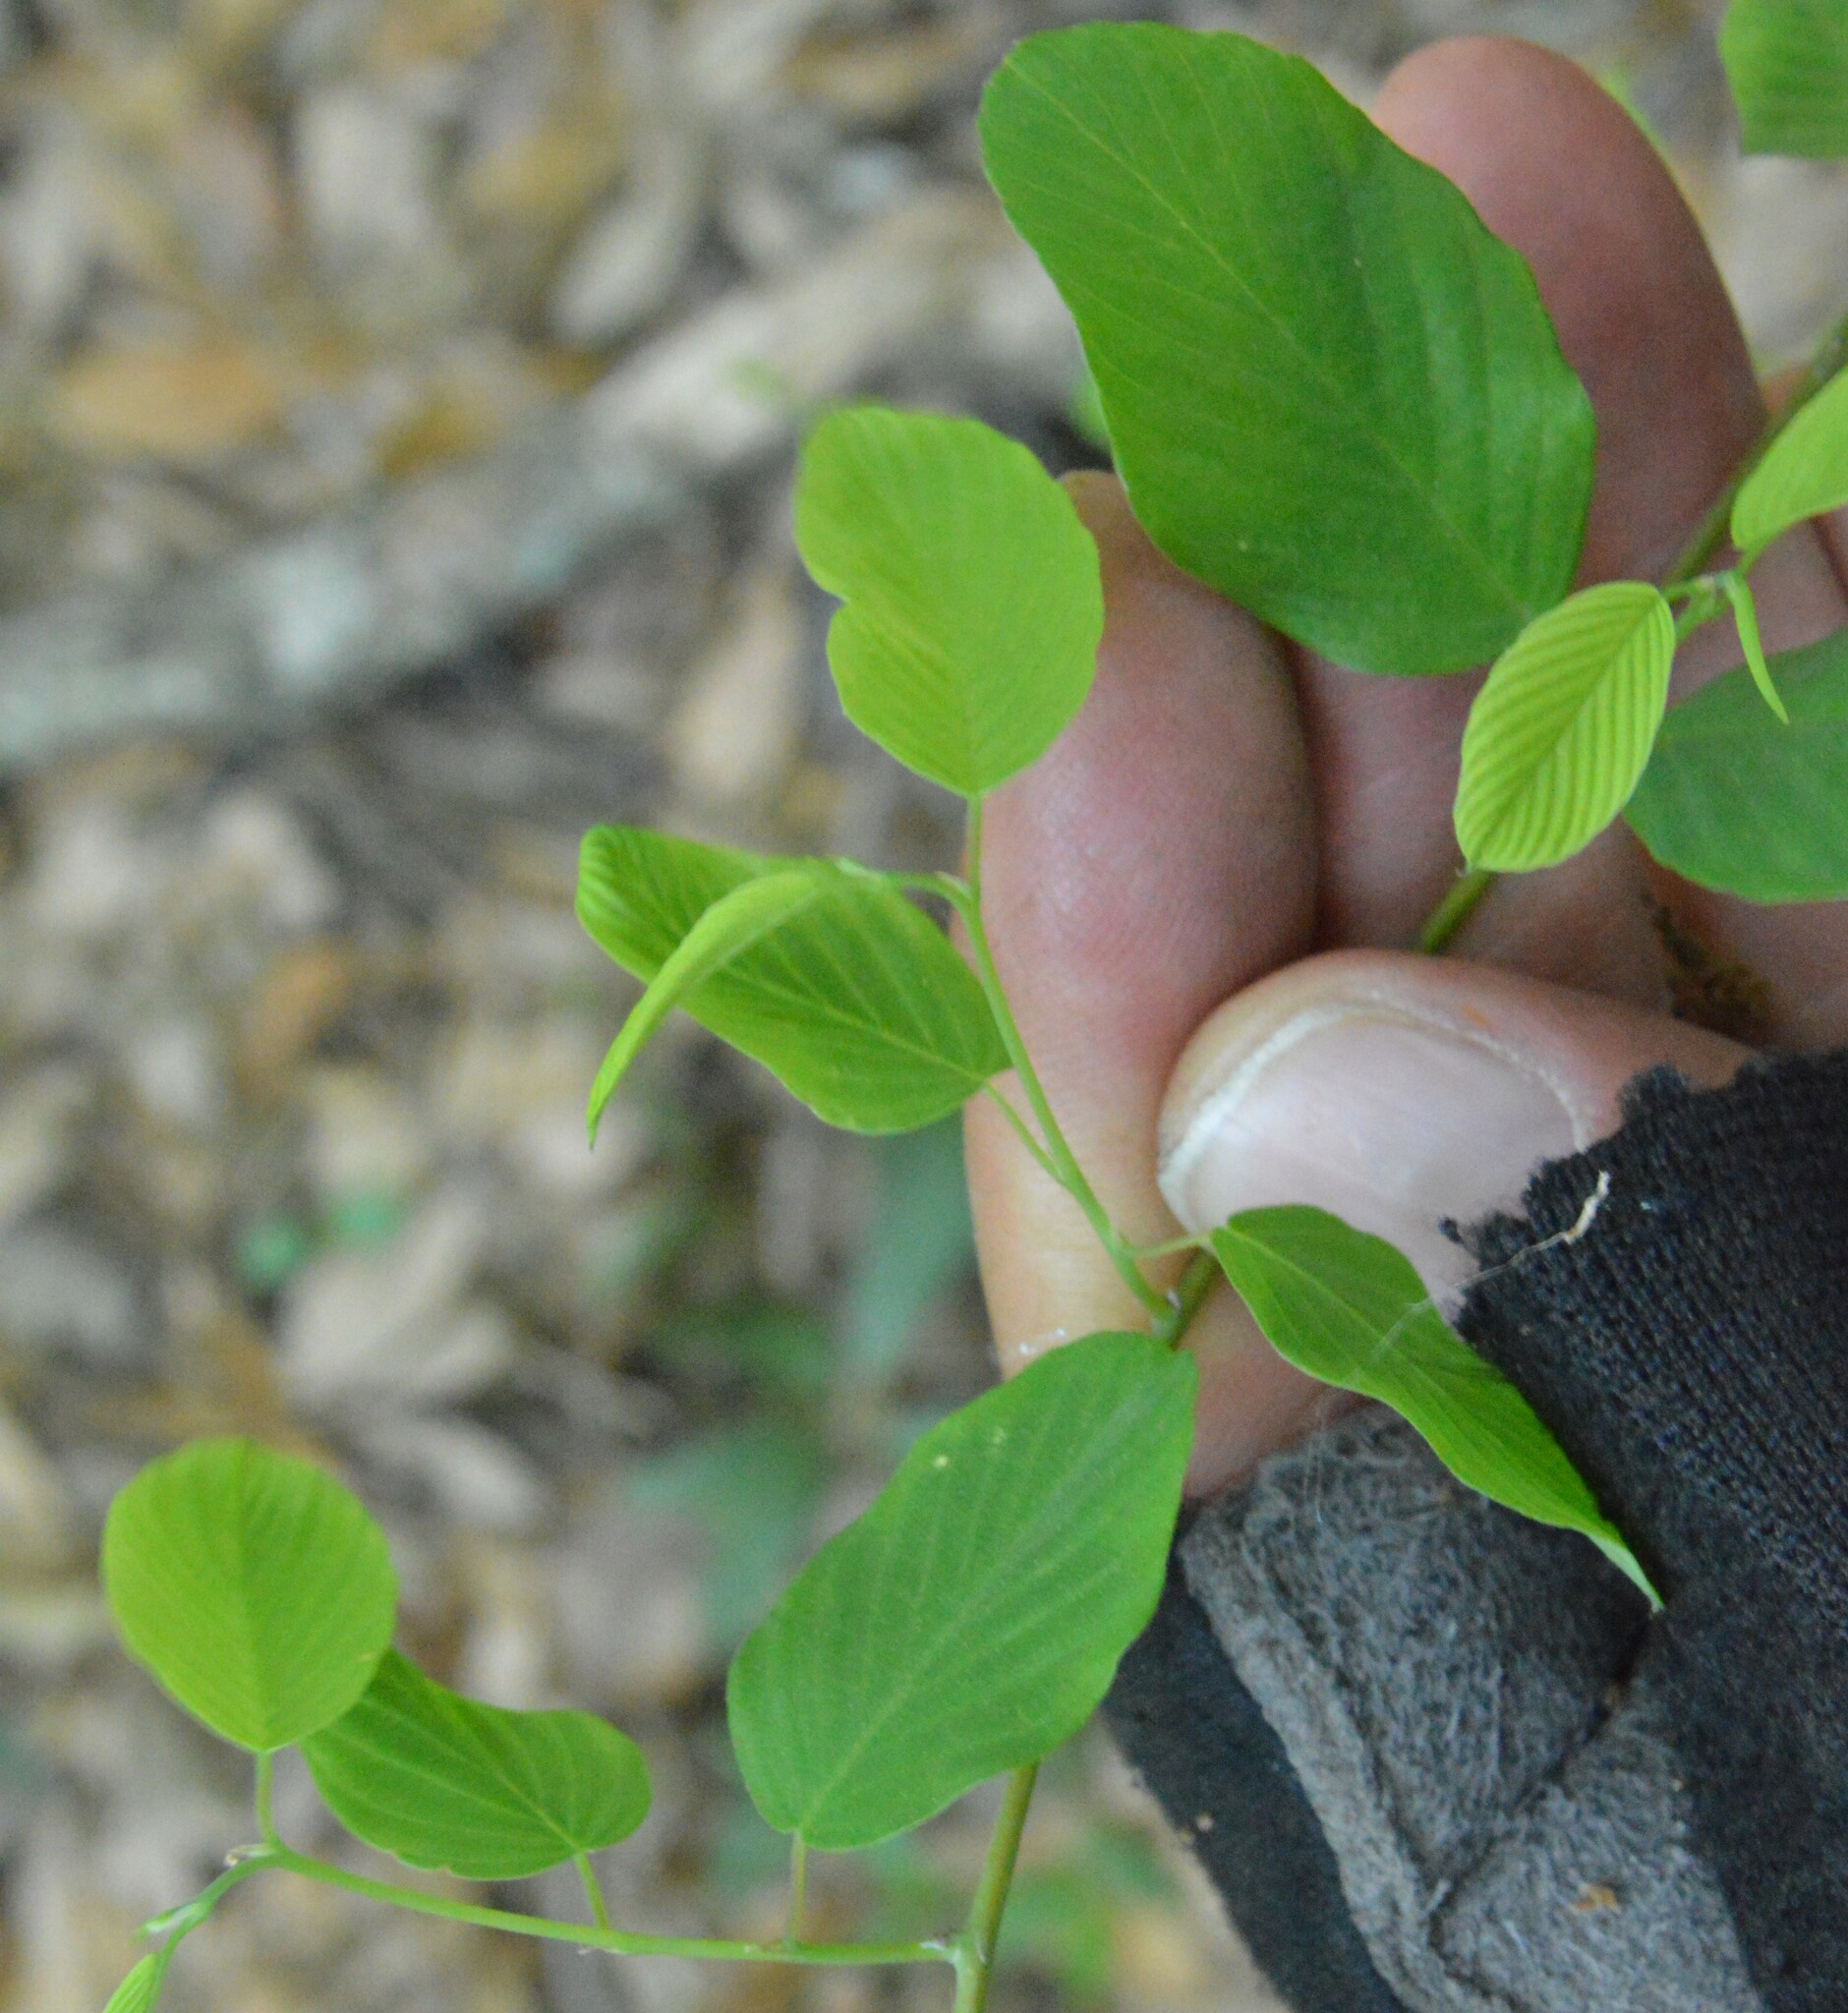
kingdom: Plantae
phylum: Tracheophyta
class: Magnoliopsida
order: Rosales
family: Rhamnaceae
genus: Berchemia
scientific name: Berchemia scandens
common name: Supplejack
